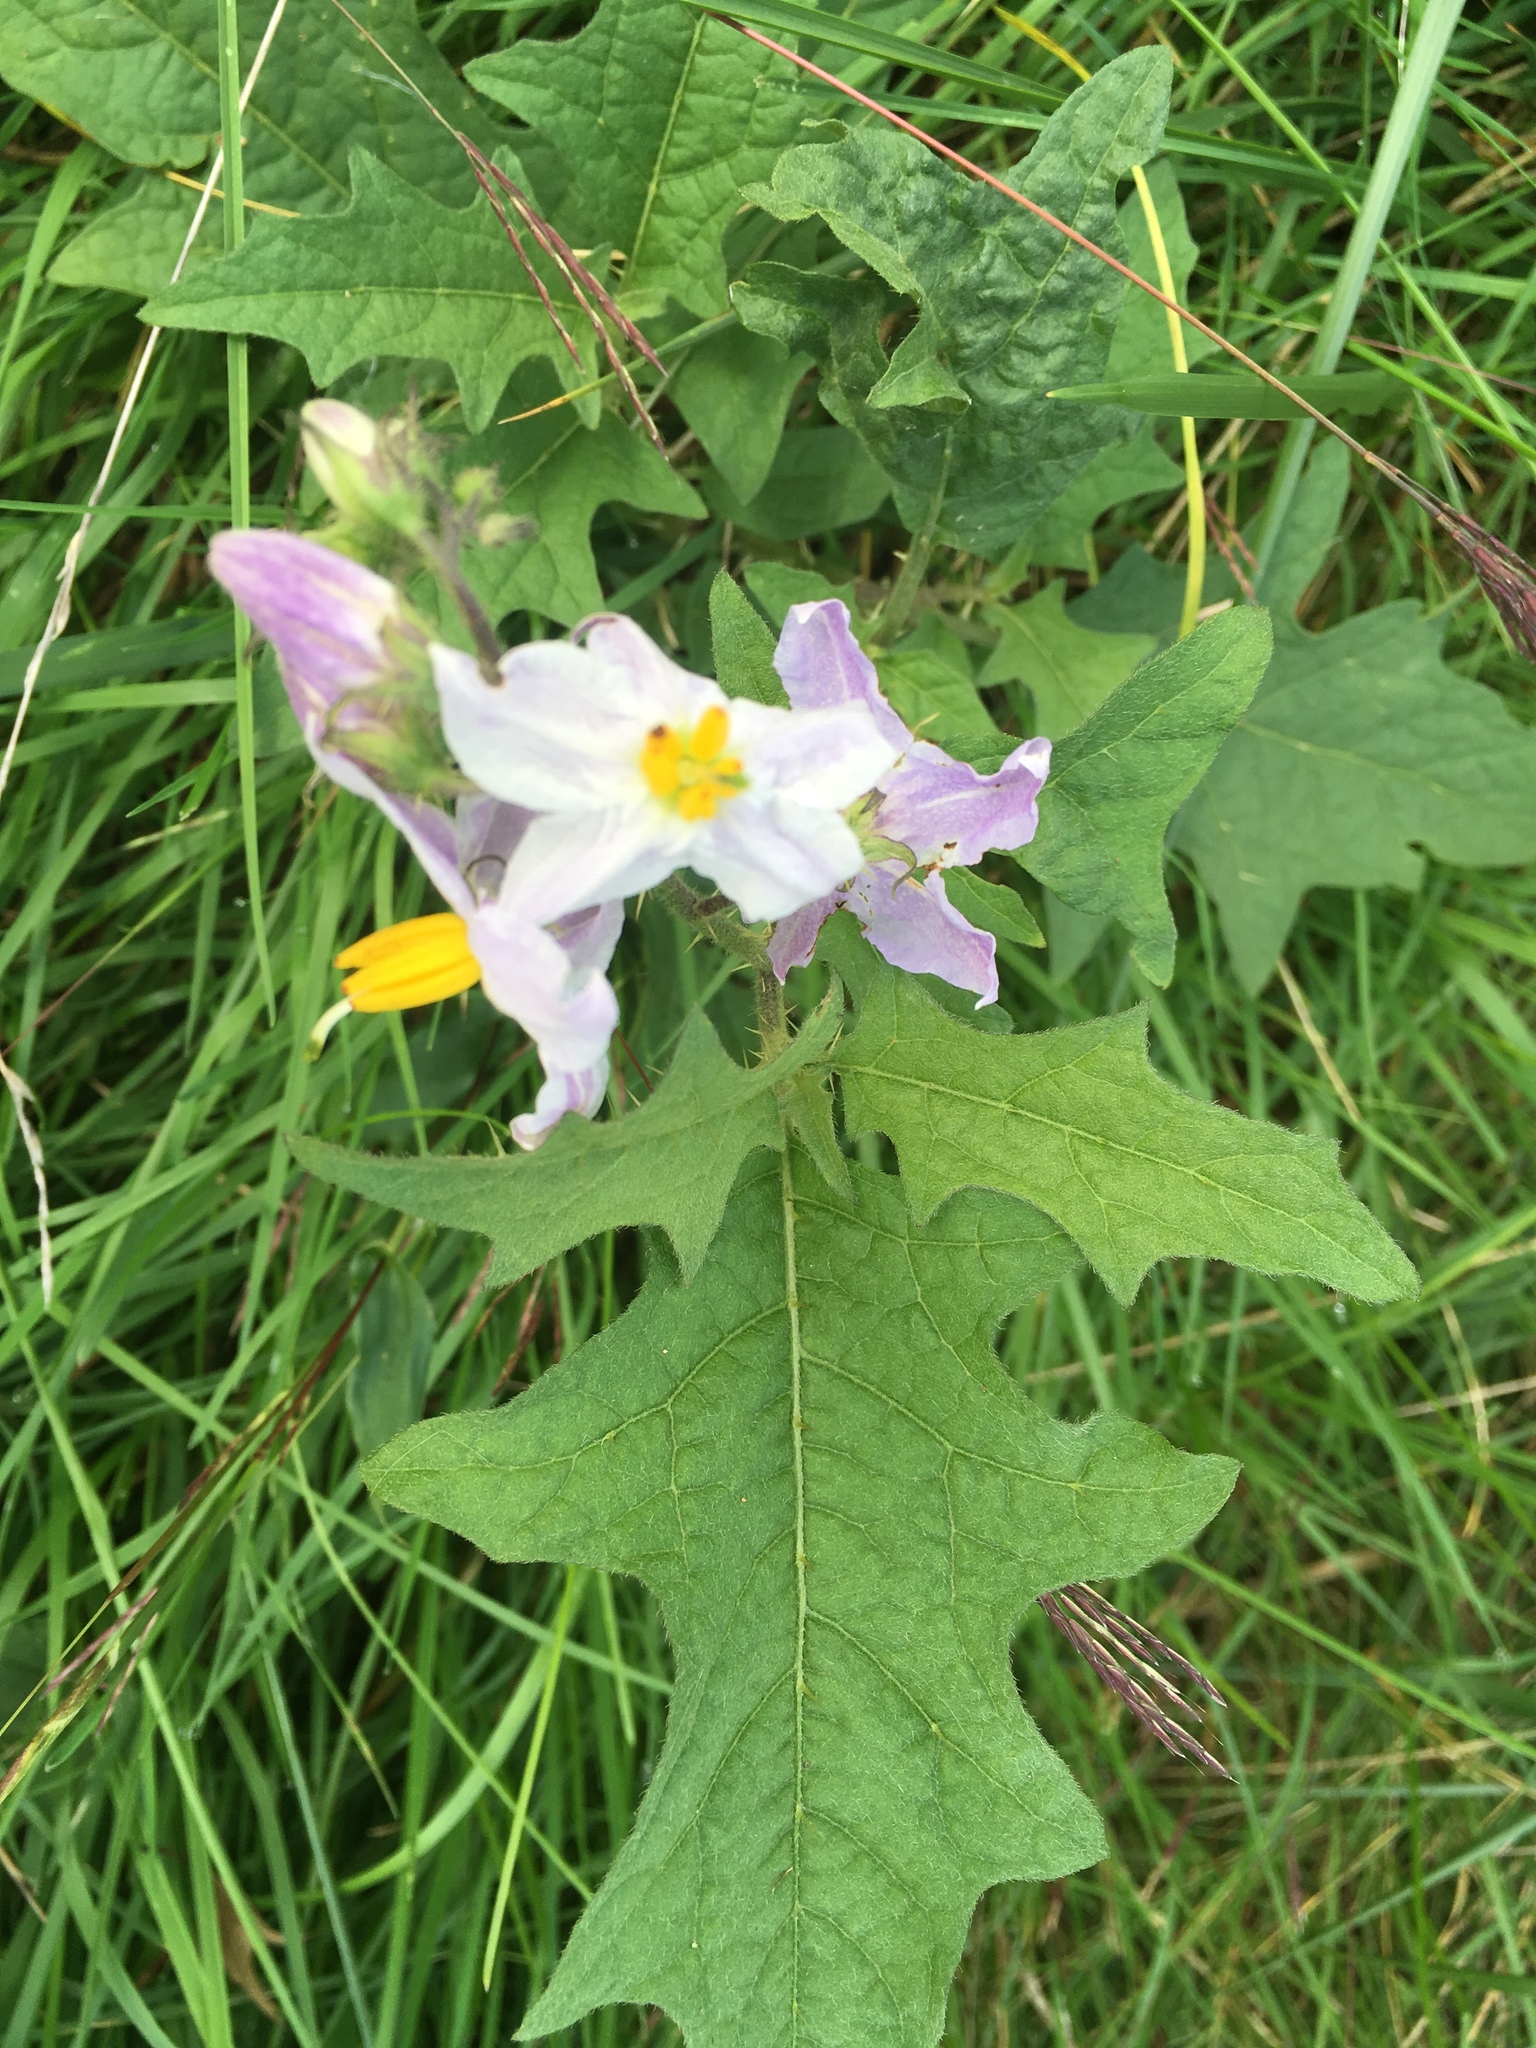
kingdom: Plantae
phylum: Tracheophyta
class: Magnoliopsida
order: Solanales
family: Solanaceae
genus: Solanum
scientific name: Solanum carolinense
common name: Horse-nettle
